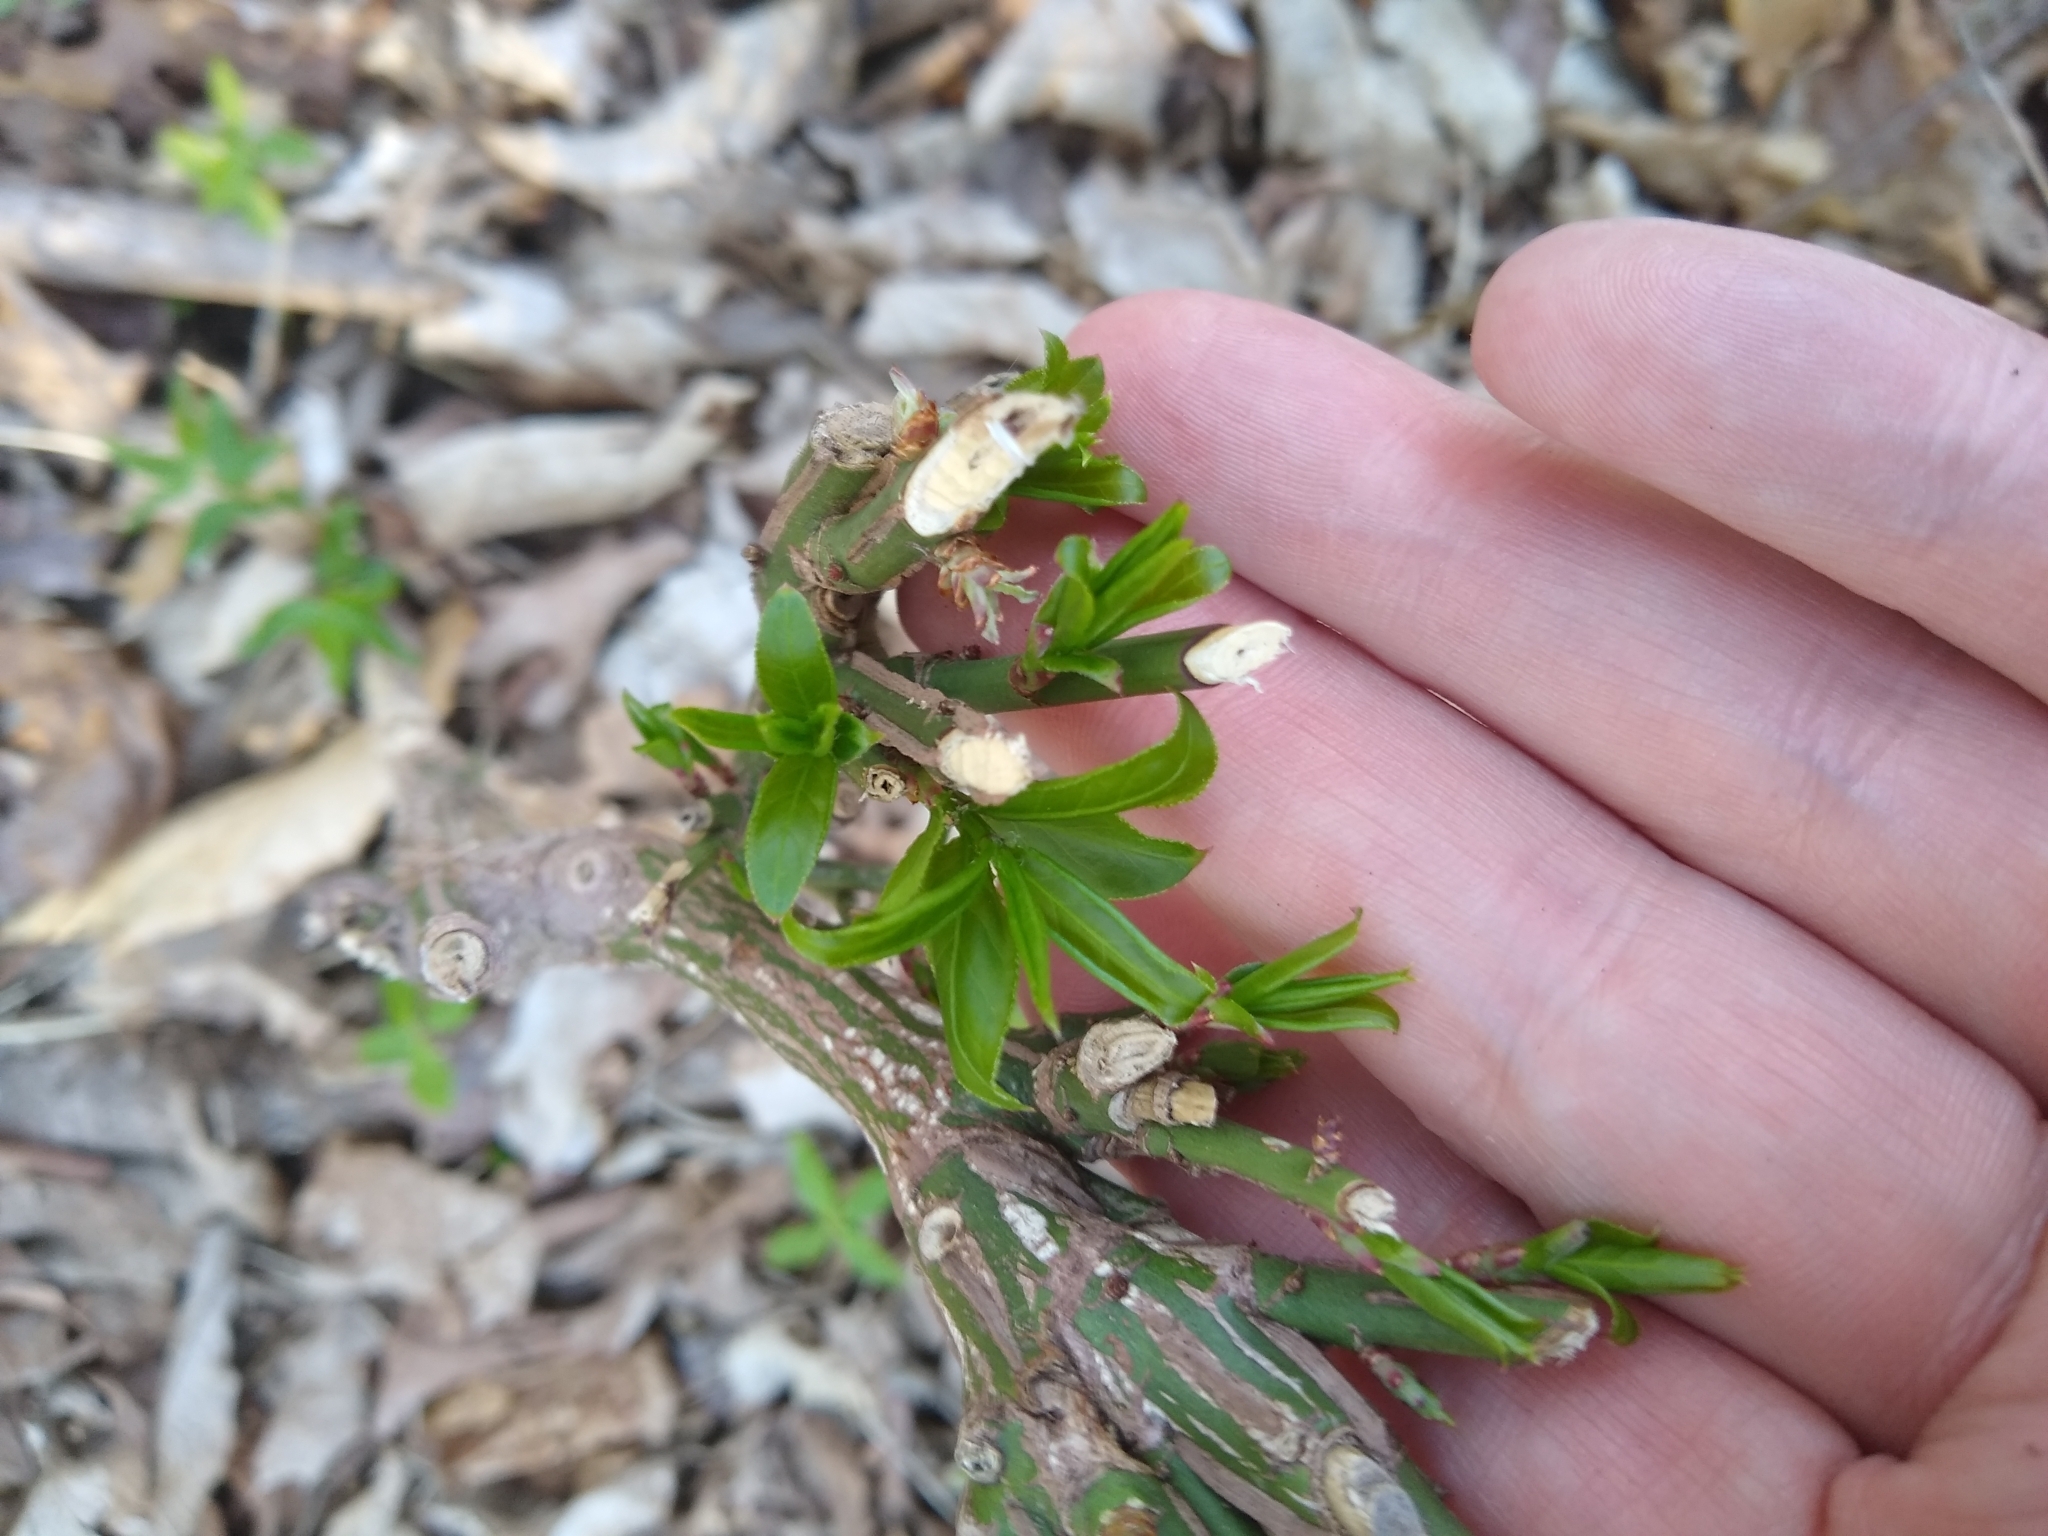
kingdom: Animalia
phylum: Chordata
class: Mammalia
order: Lagomorpha
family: Leporidae
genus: Sylvilagus
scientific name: Sylvilagus floridanus
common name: Eastern cottontail
